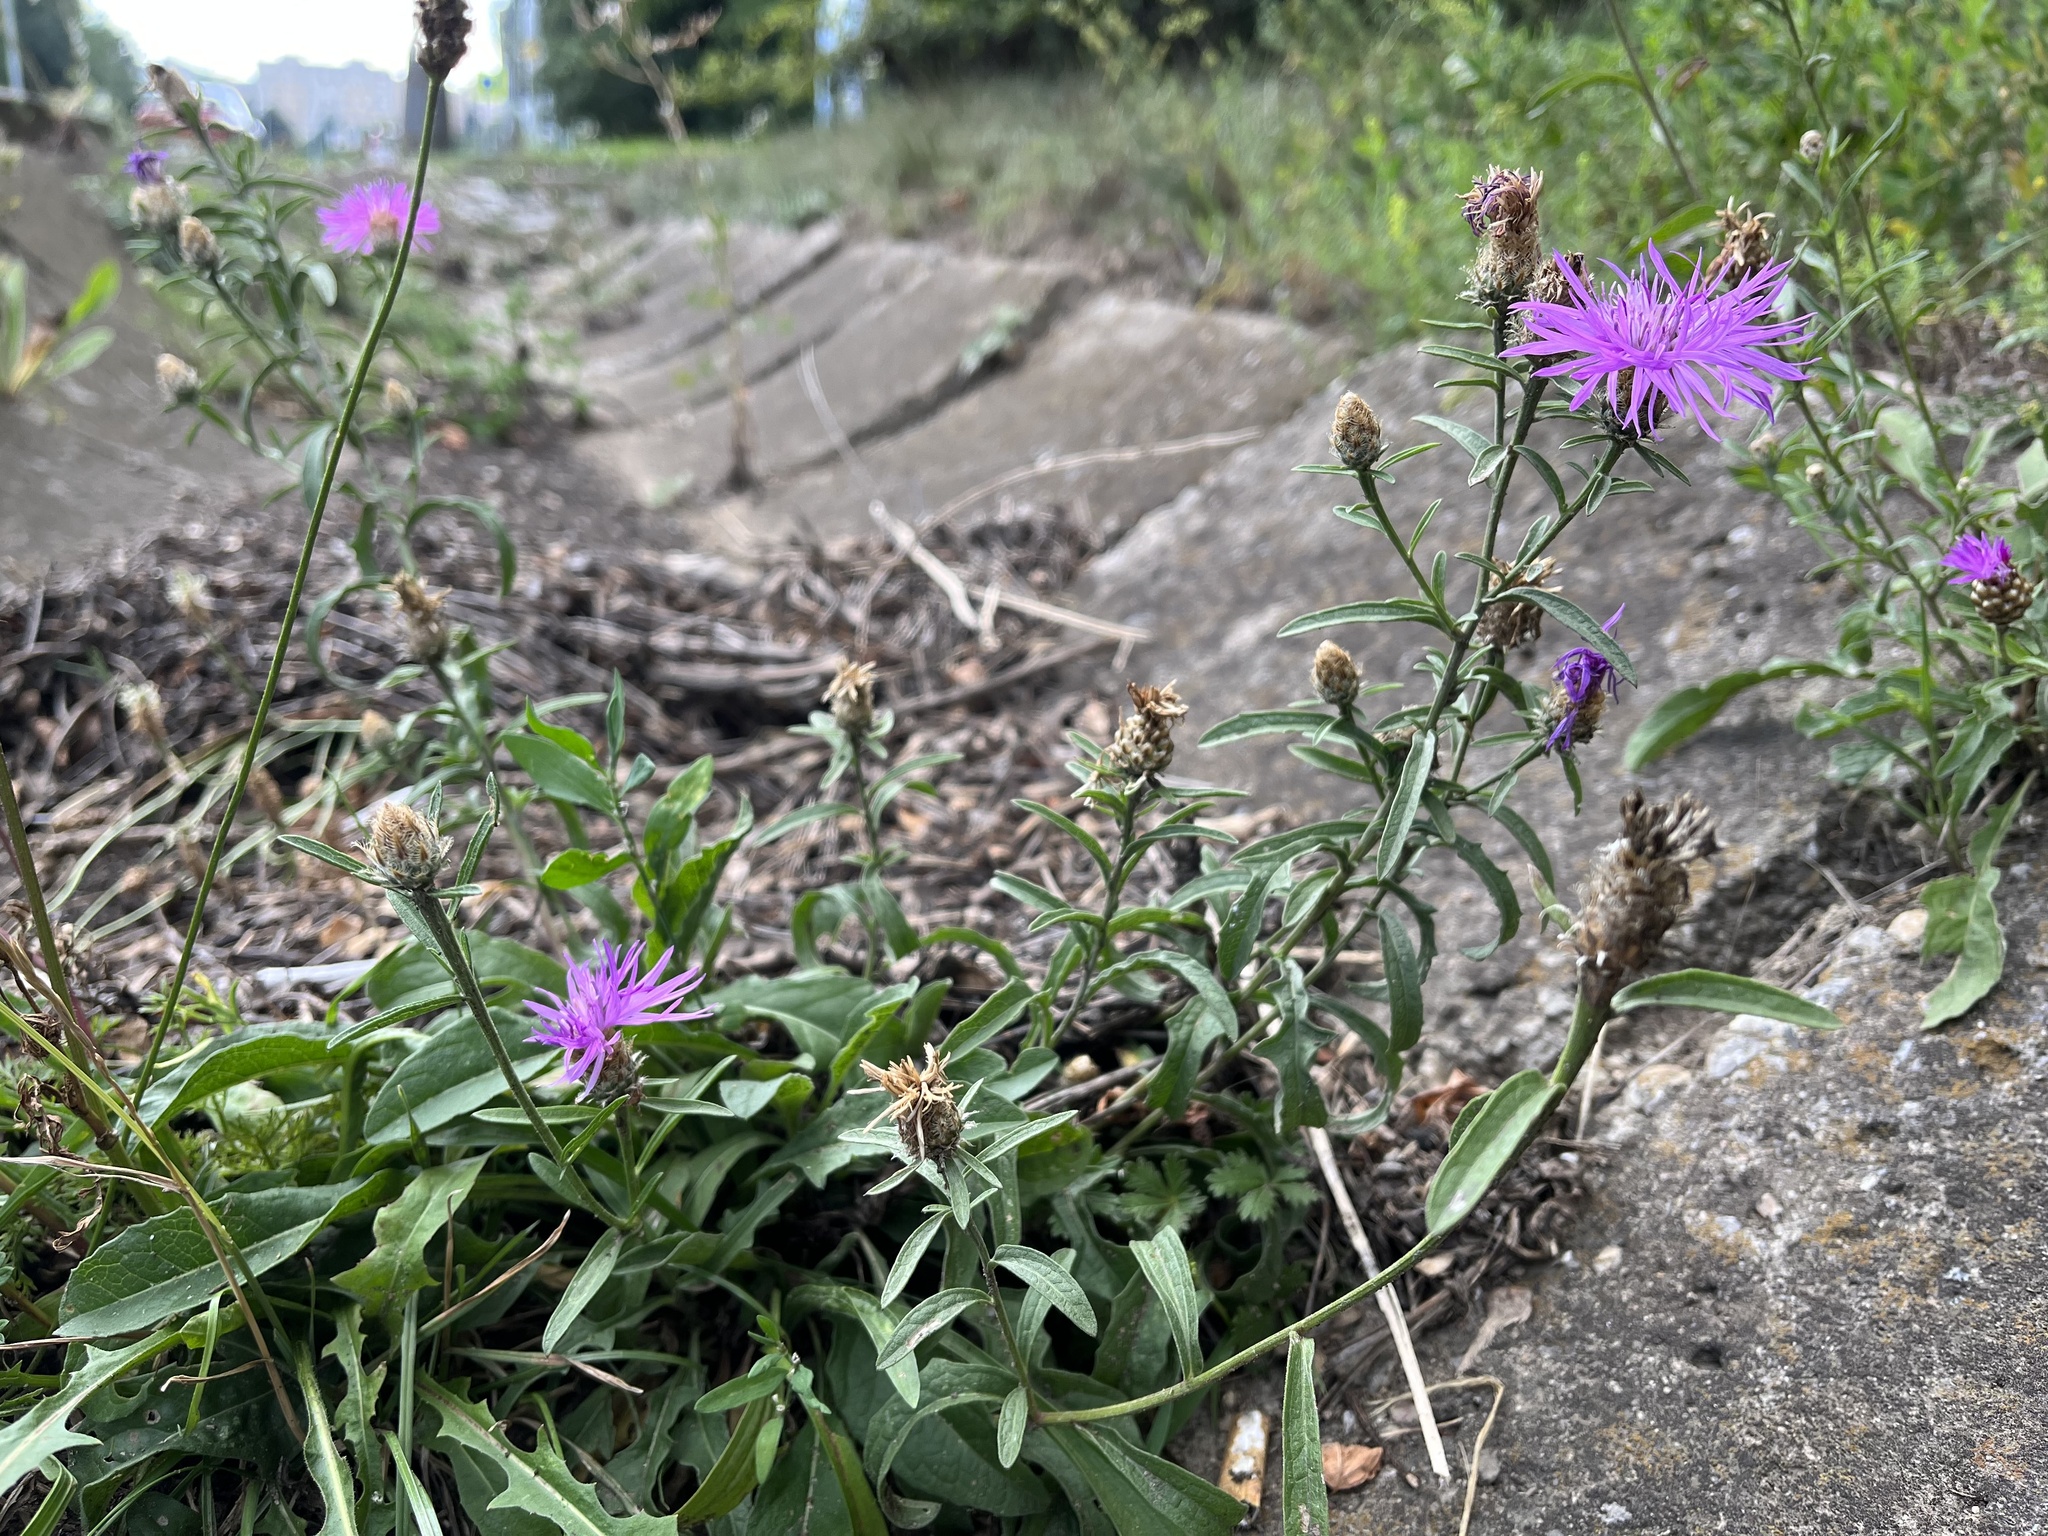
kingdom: Plantae
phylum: Tracheophyta
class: Magnoliopsida
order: Asterales
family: Asteraceae
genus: Centaurea
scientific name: Centaurea jacea
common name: Brown knapweed
